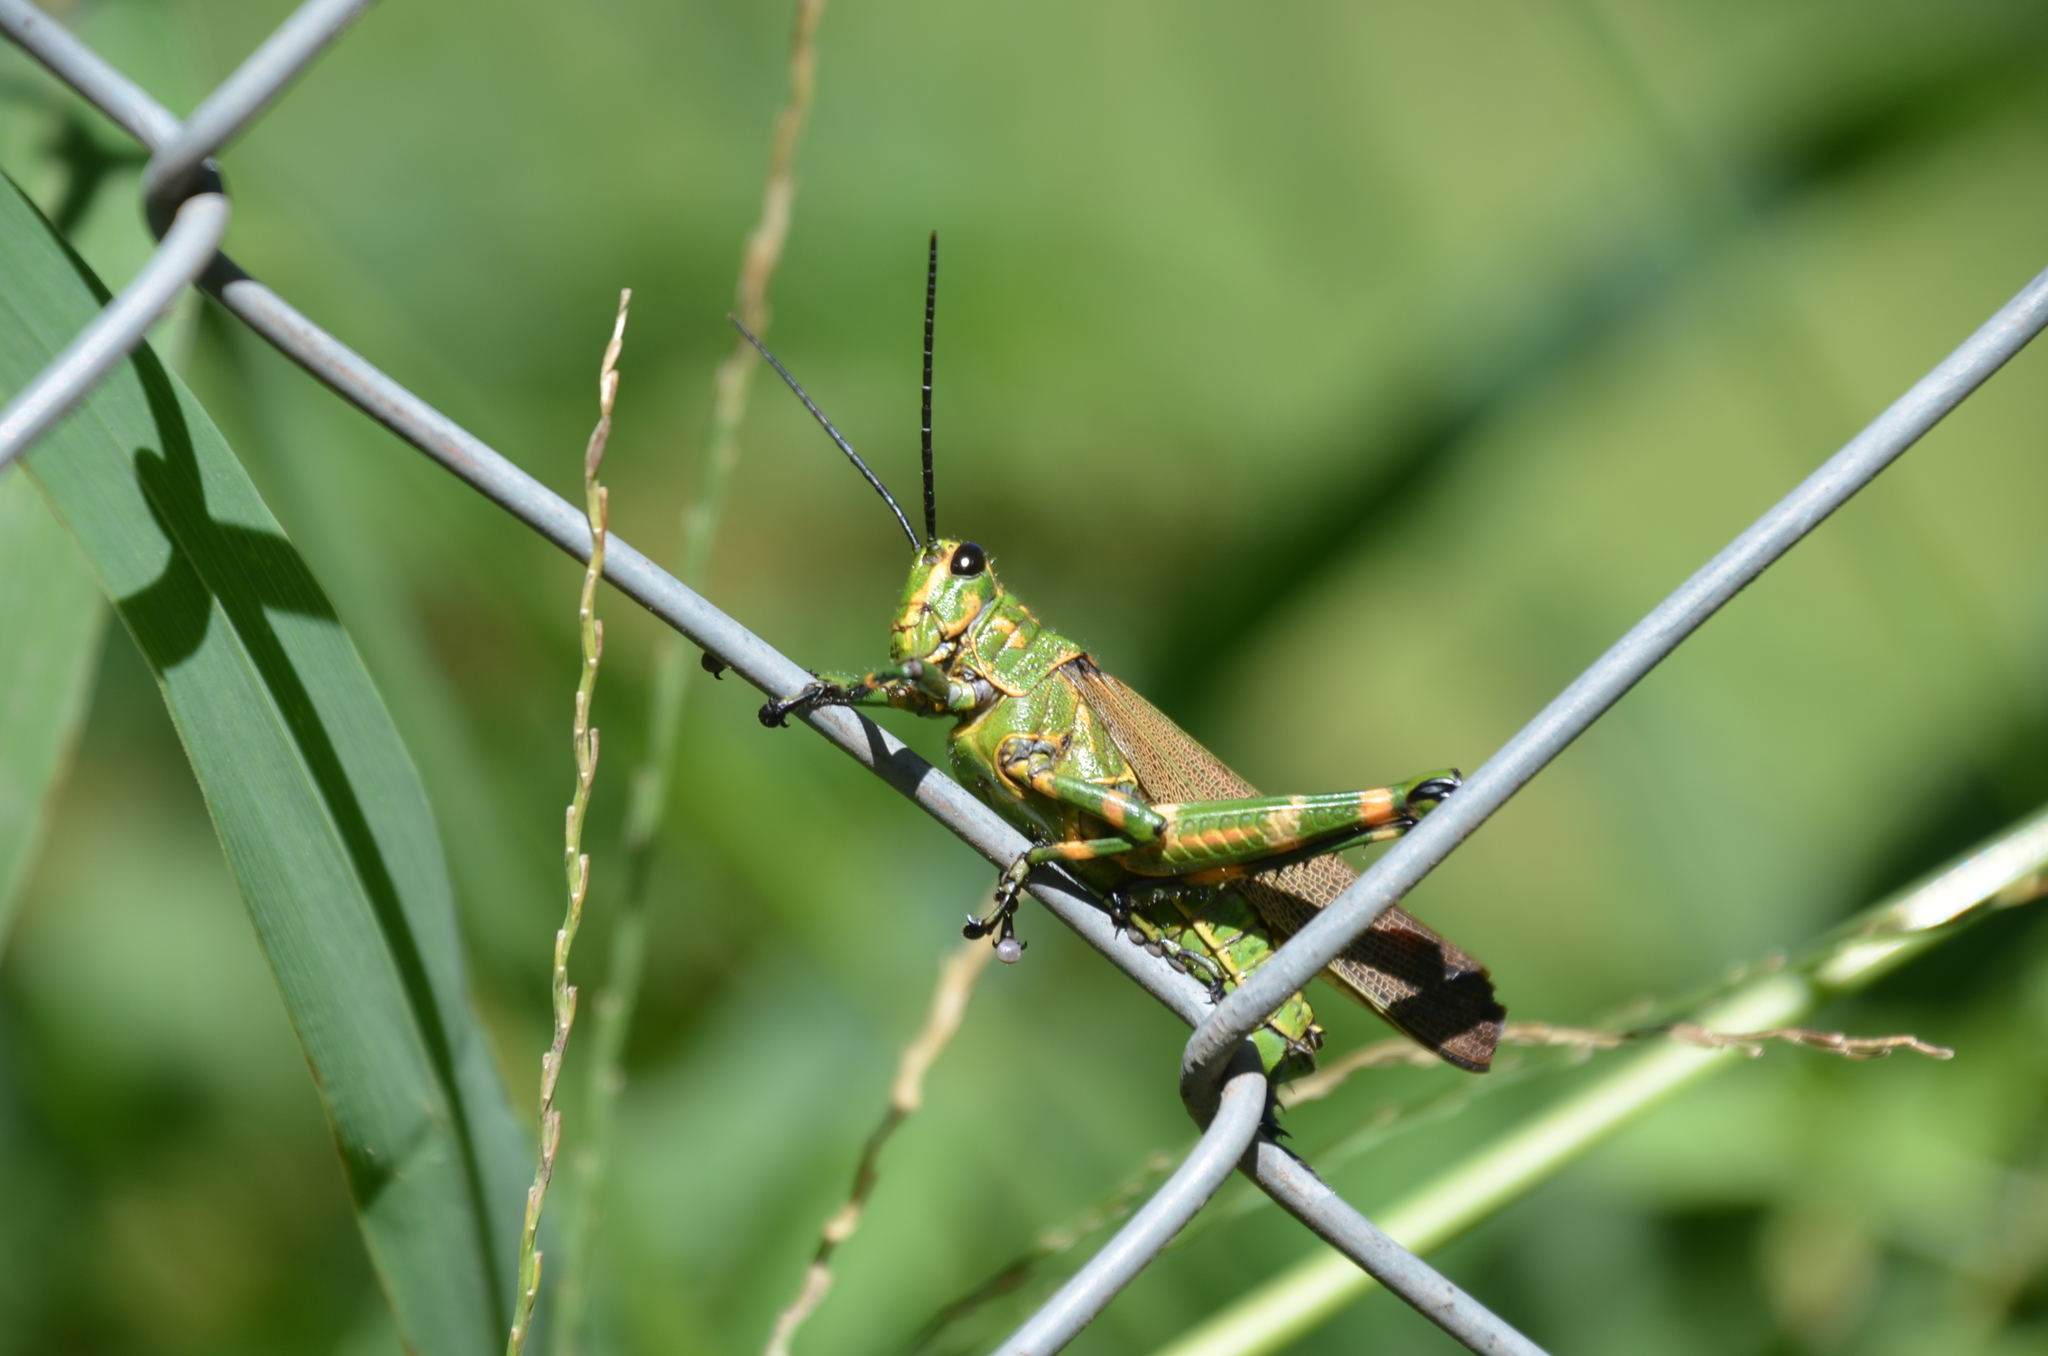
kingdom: Animalia
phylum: Arthropoda
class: Insecta
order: Orthoptera
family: Romaleidae
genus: Chromacris
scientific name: Chromacris speciosa
